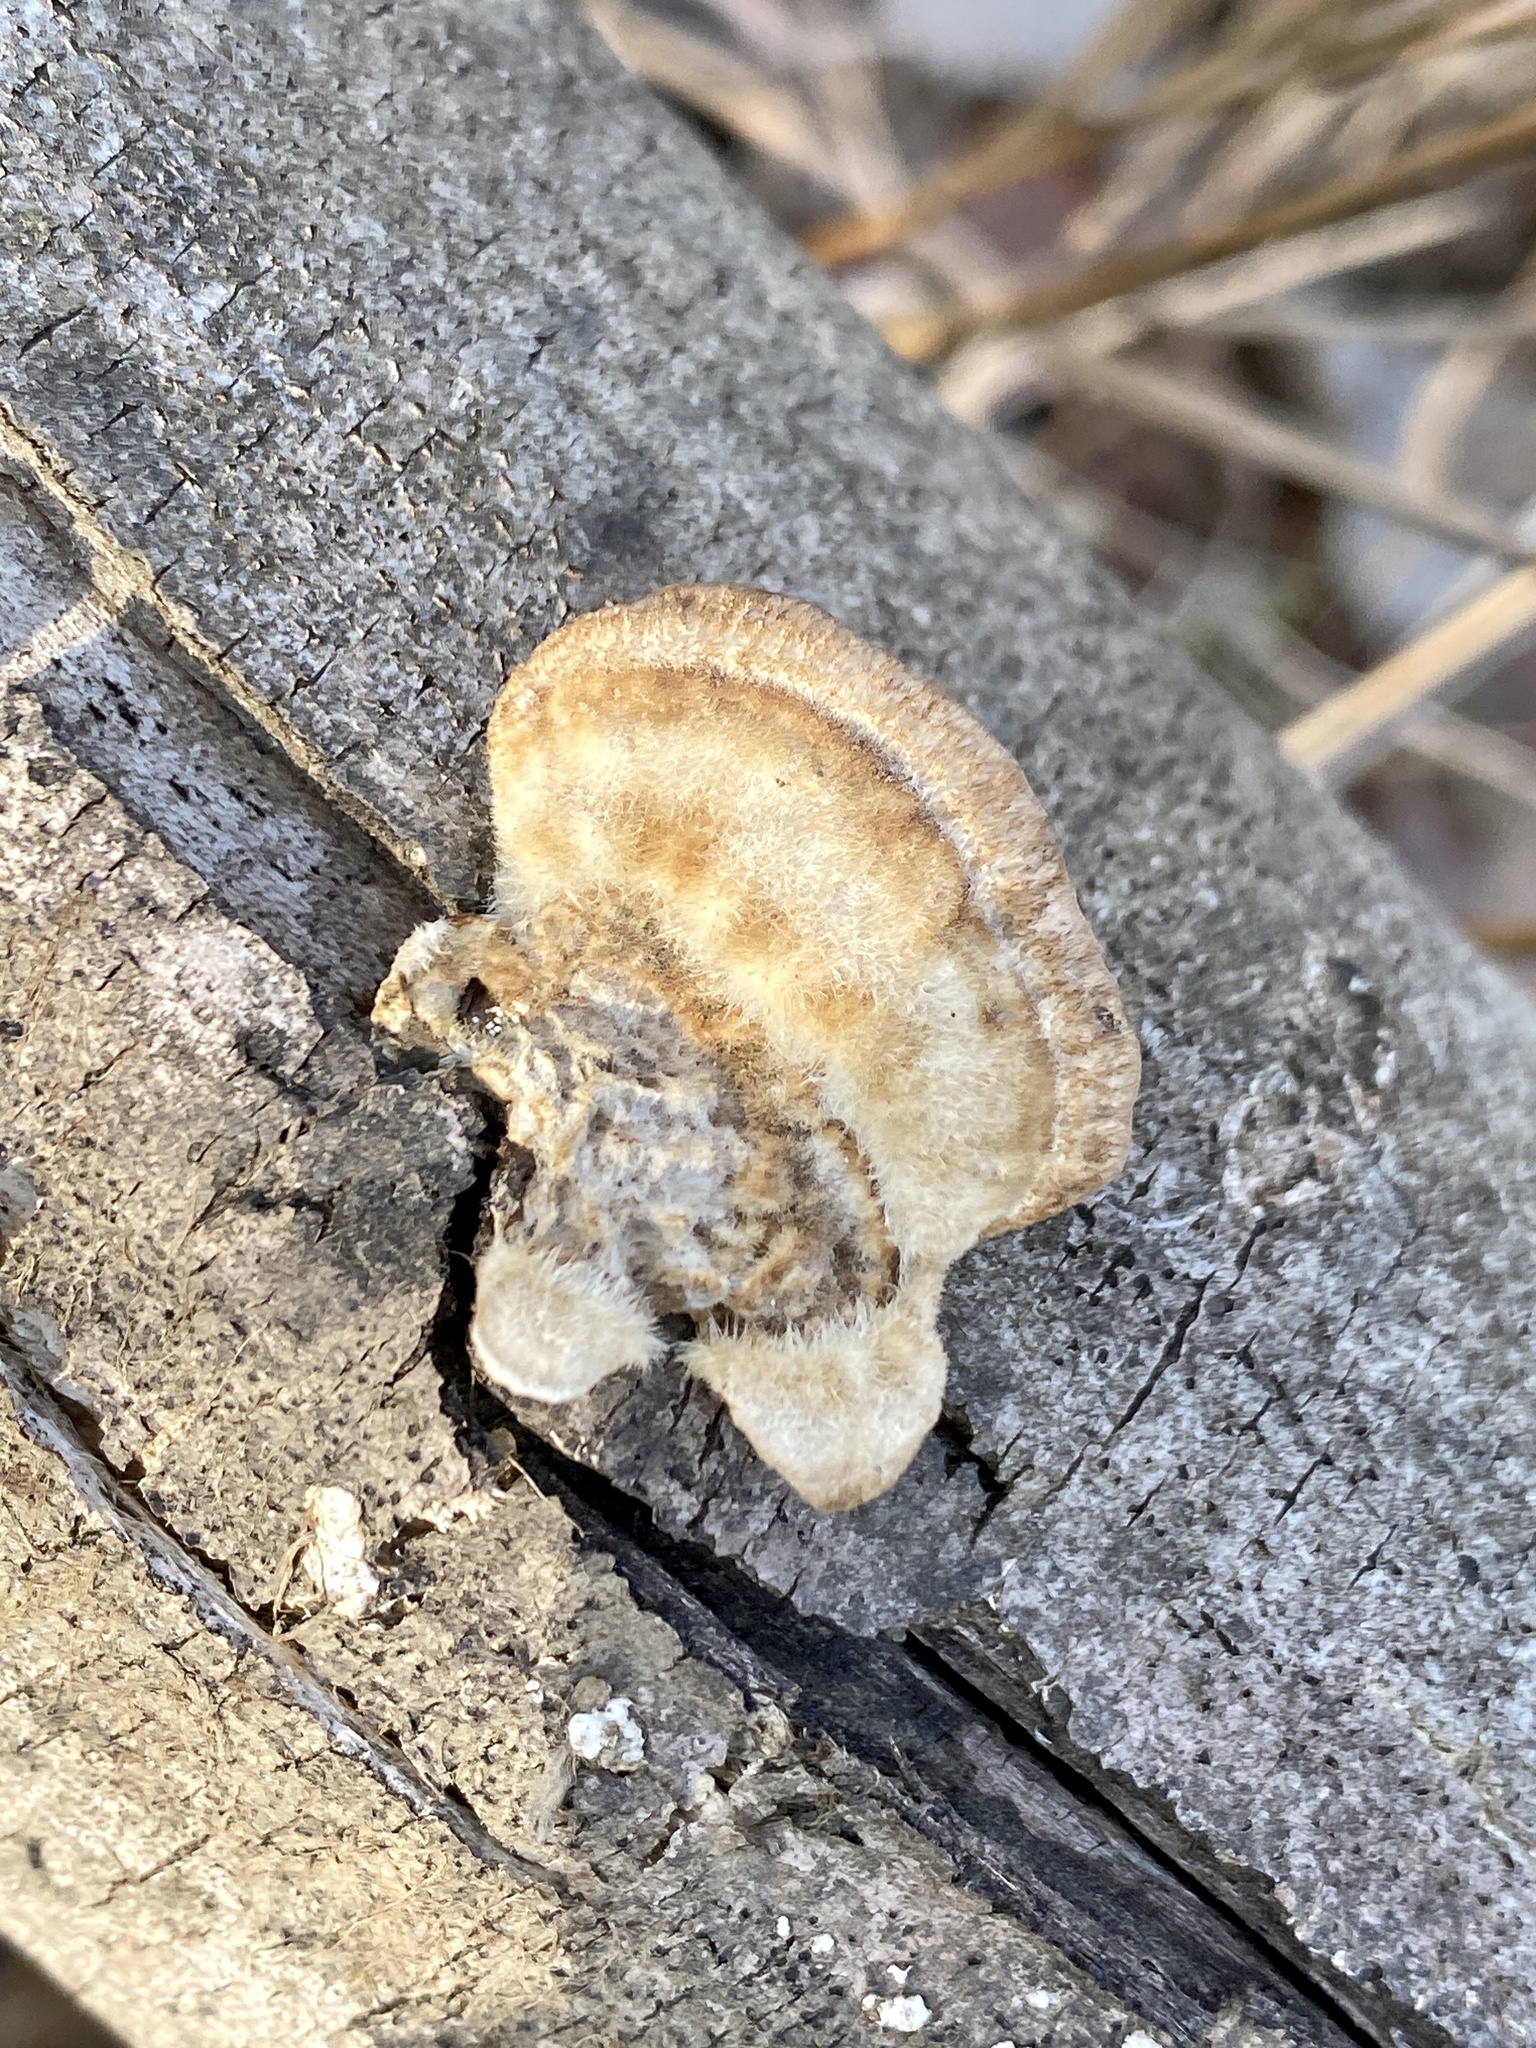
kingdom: Fungi
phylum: Basidiomycota
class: Agaricomycetes
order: Polyporales
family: Polyporaceae
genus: Trametes
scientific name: Trametes hirsuta
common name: Hairy bracket
